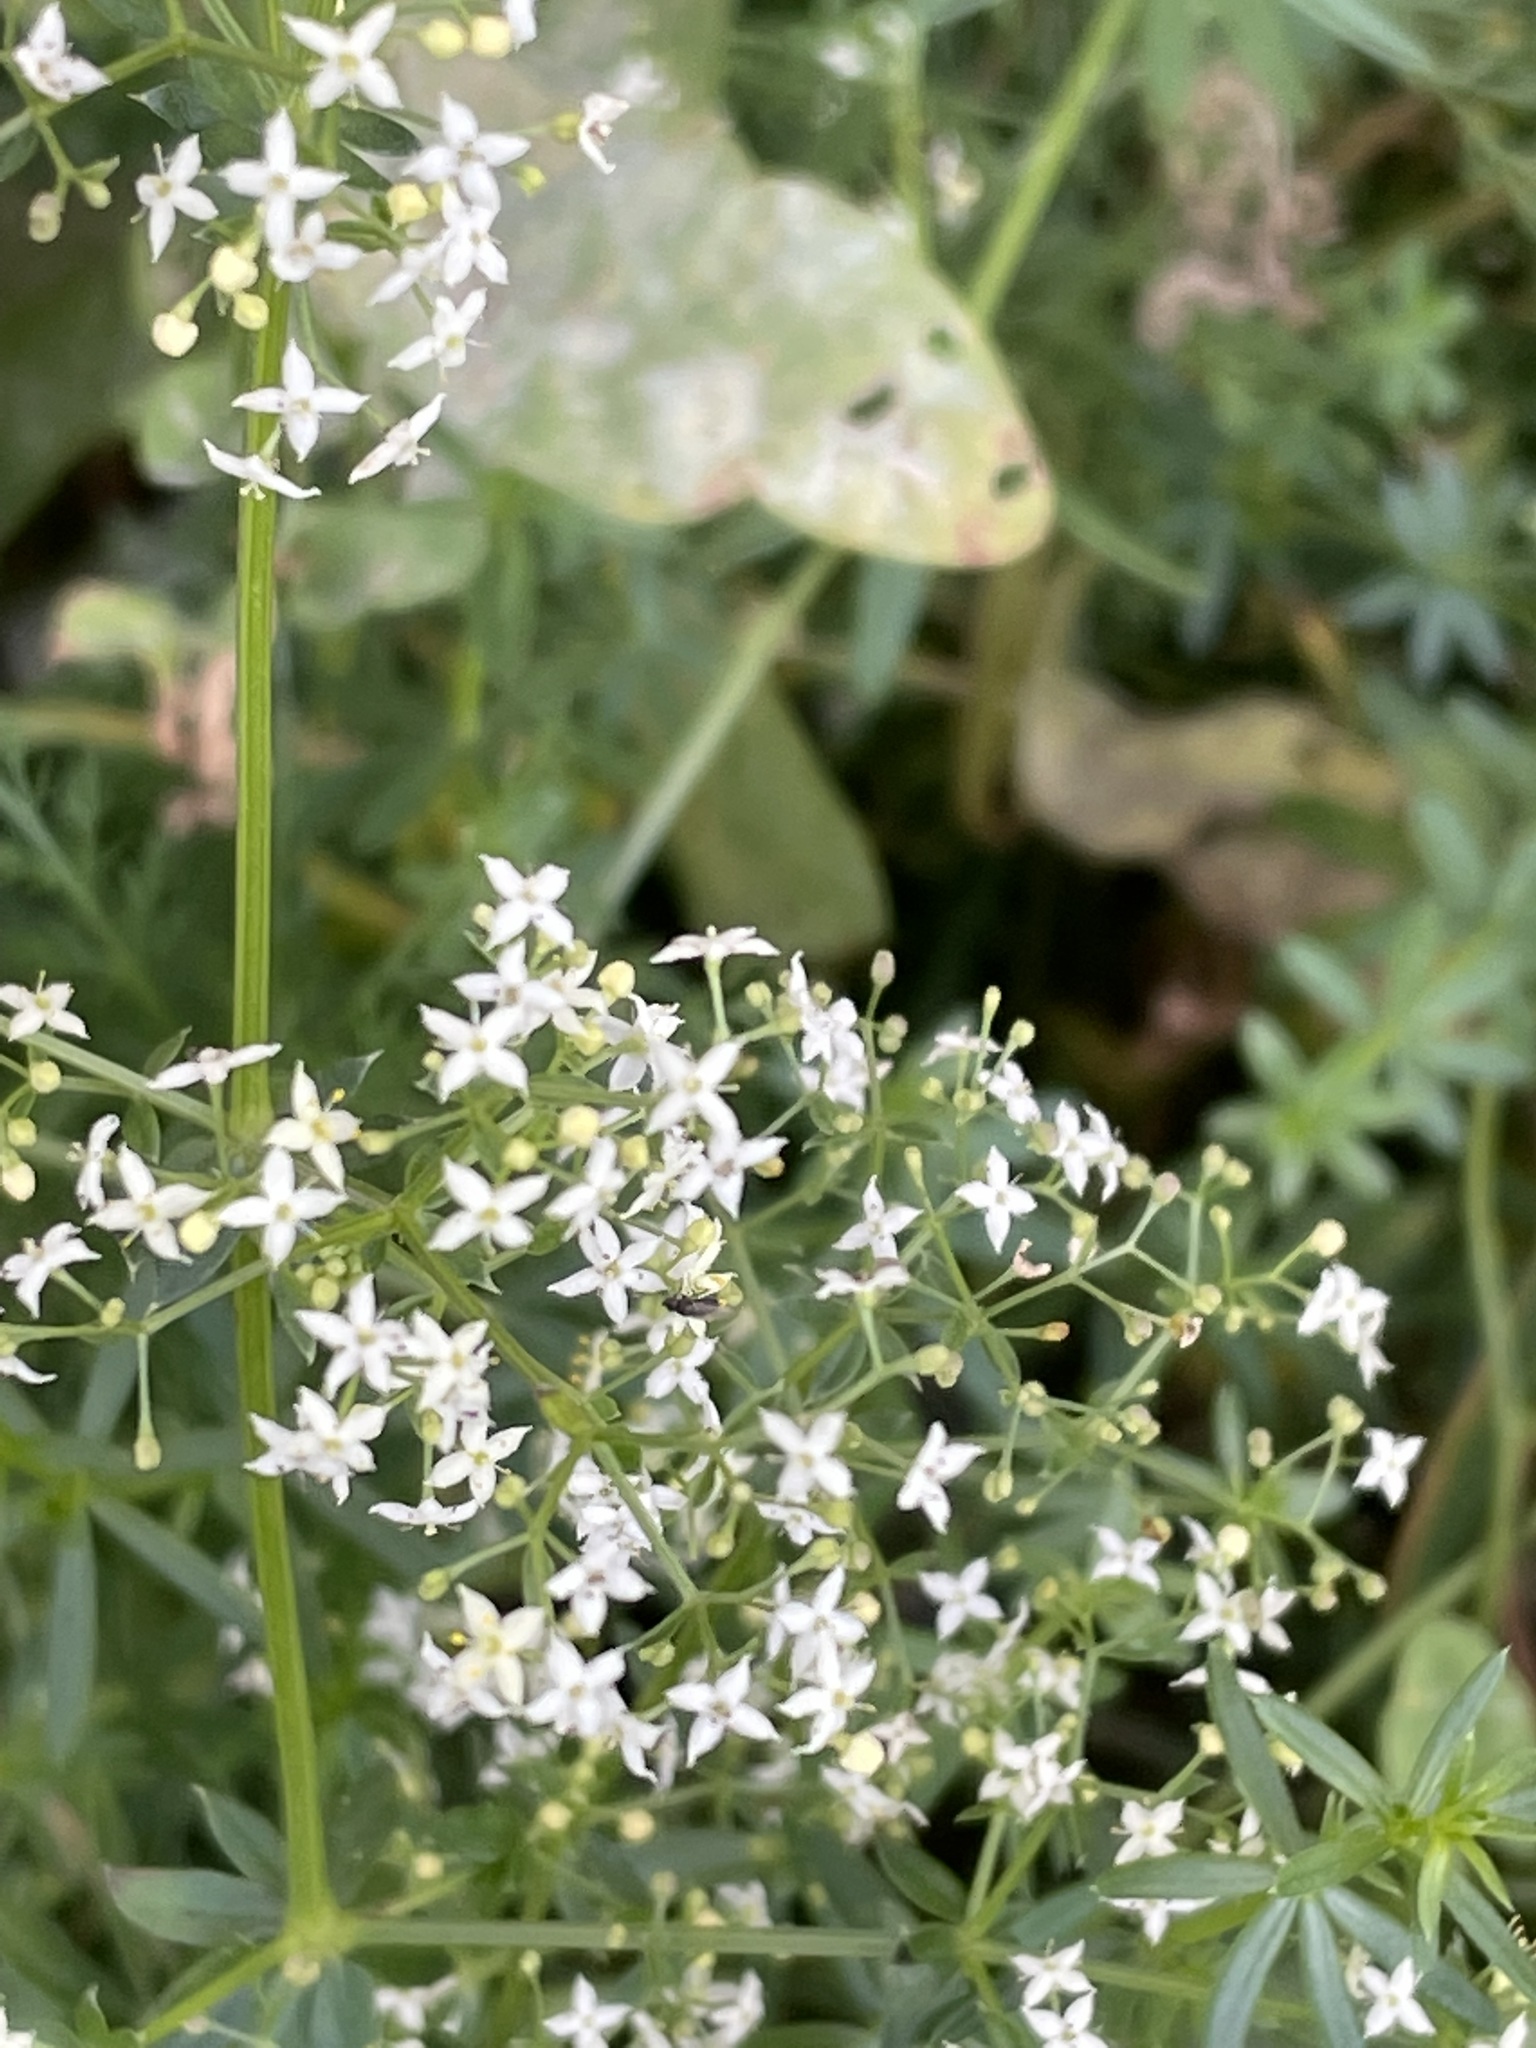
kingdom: Plantae
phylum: Tracheophyta
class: Magnoliopsida
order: Gentianales
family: Rubiaceae
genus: Galium
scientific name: Galium mollugo
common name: Hedge bedstraw
